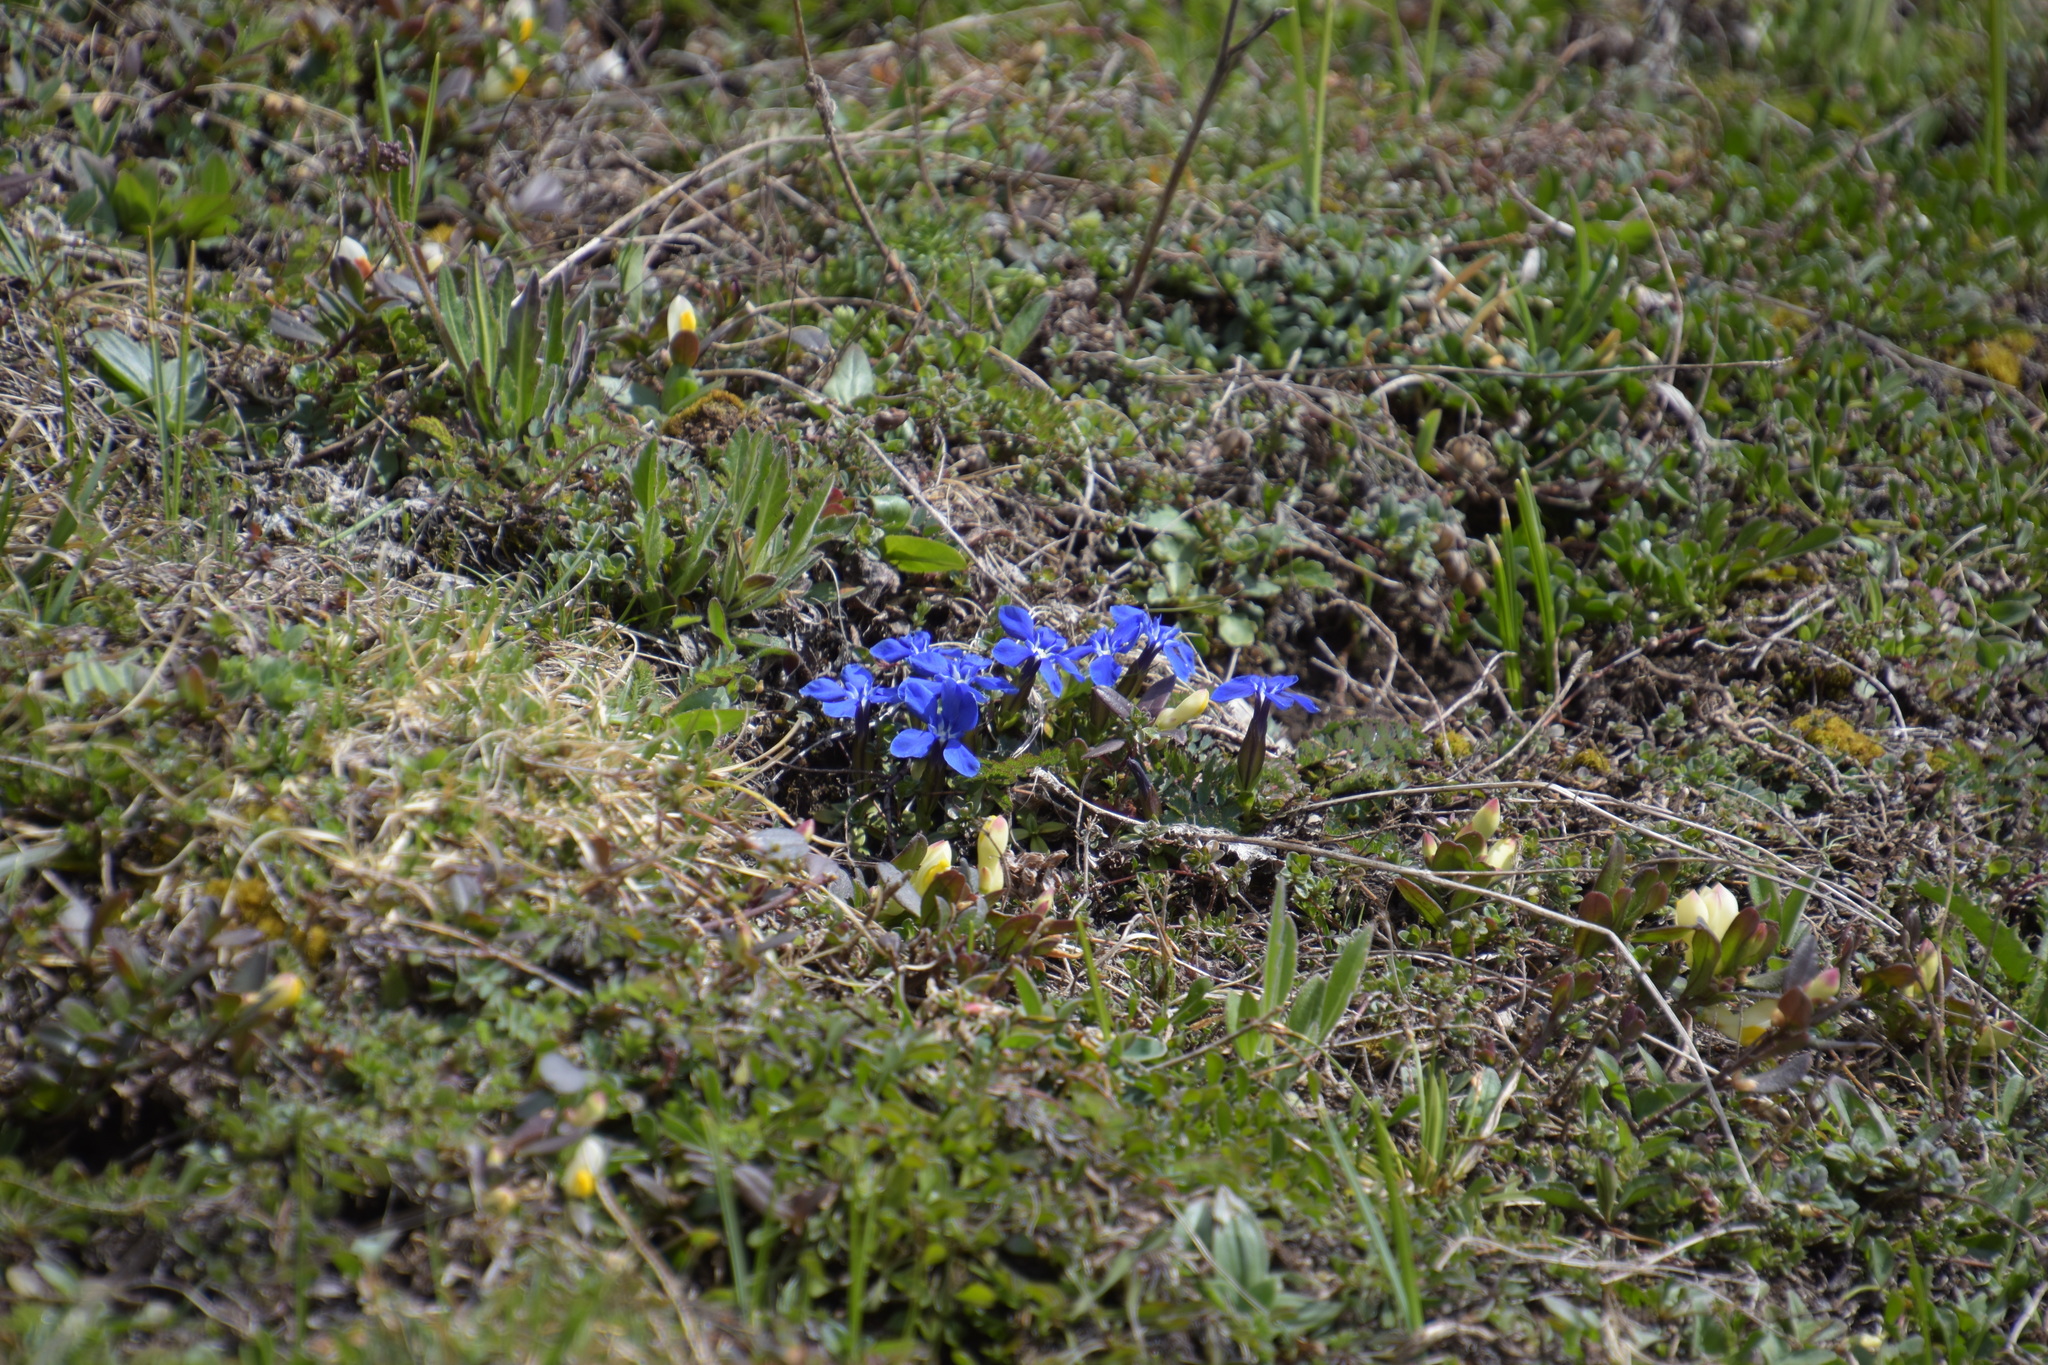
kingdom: Plantae
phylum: Tracheophyta
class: Magnoliopsida
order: Gentianales
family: Gentianaceae
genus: Gentiana
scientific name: Gentiana verna
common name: Spring gentian
